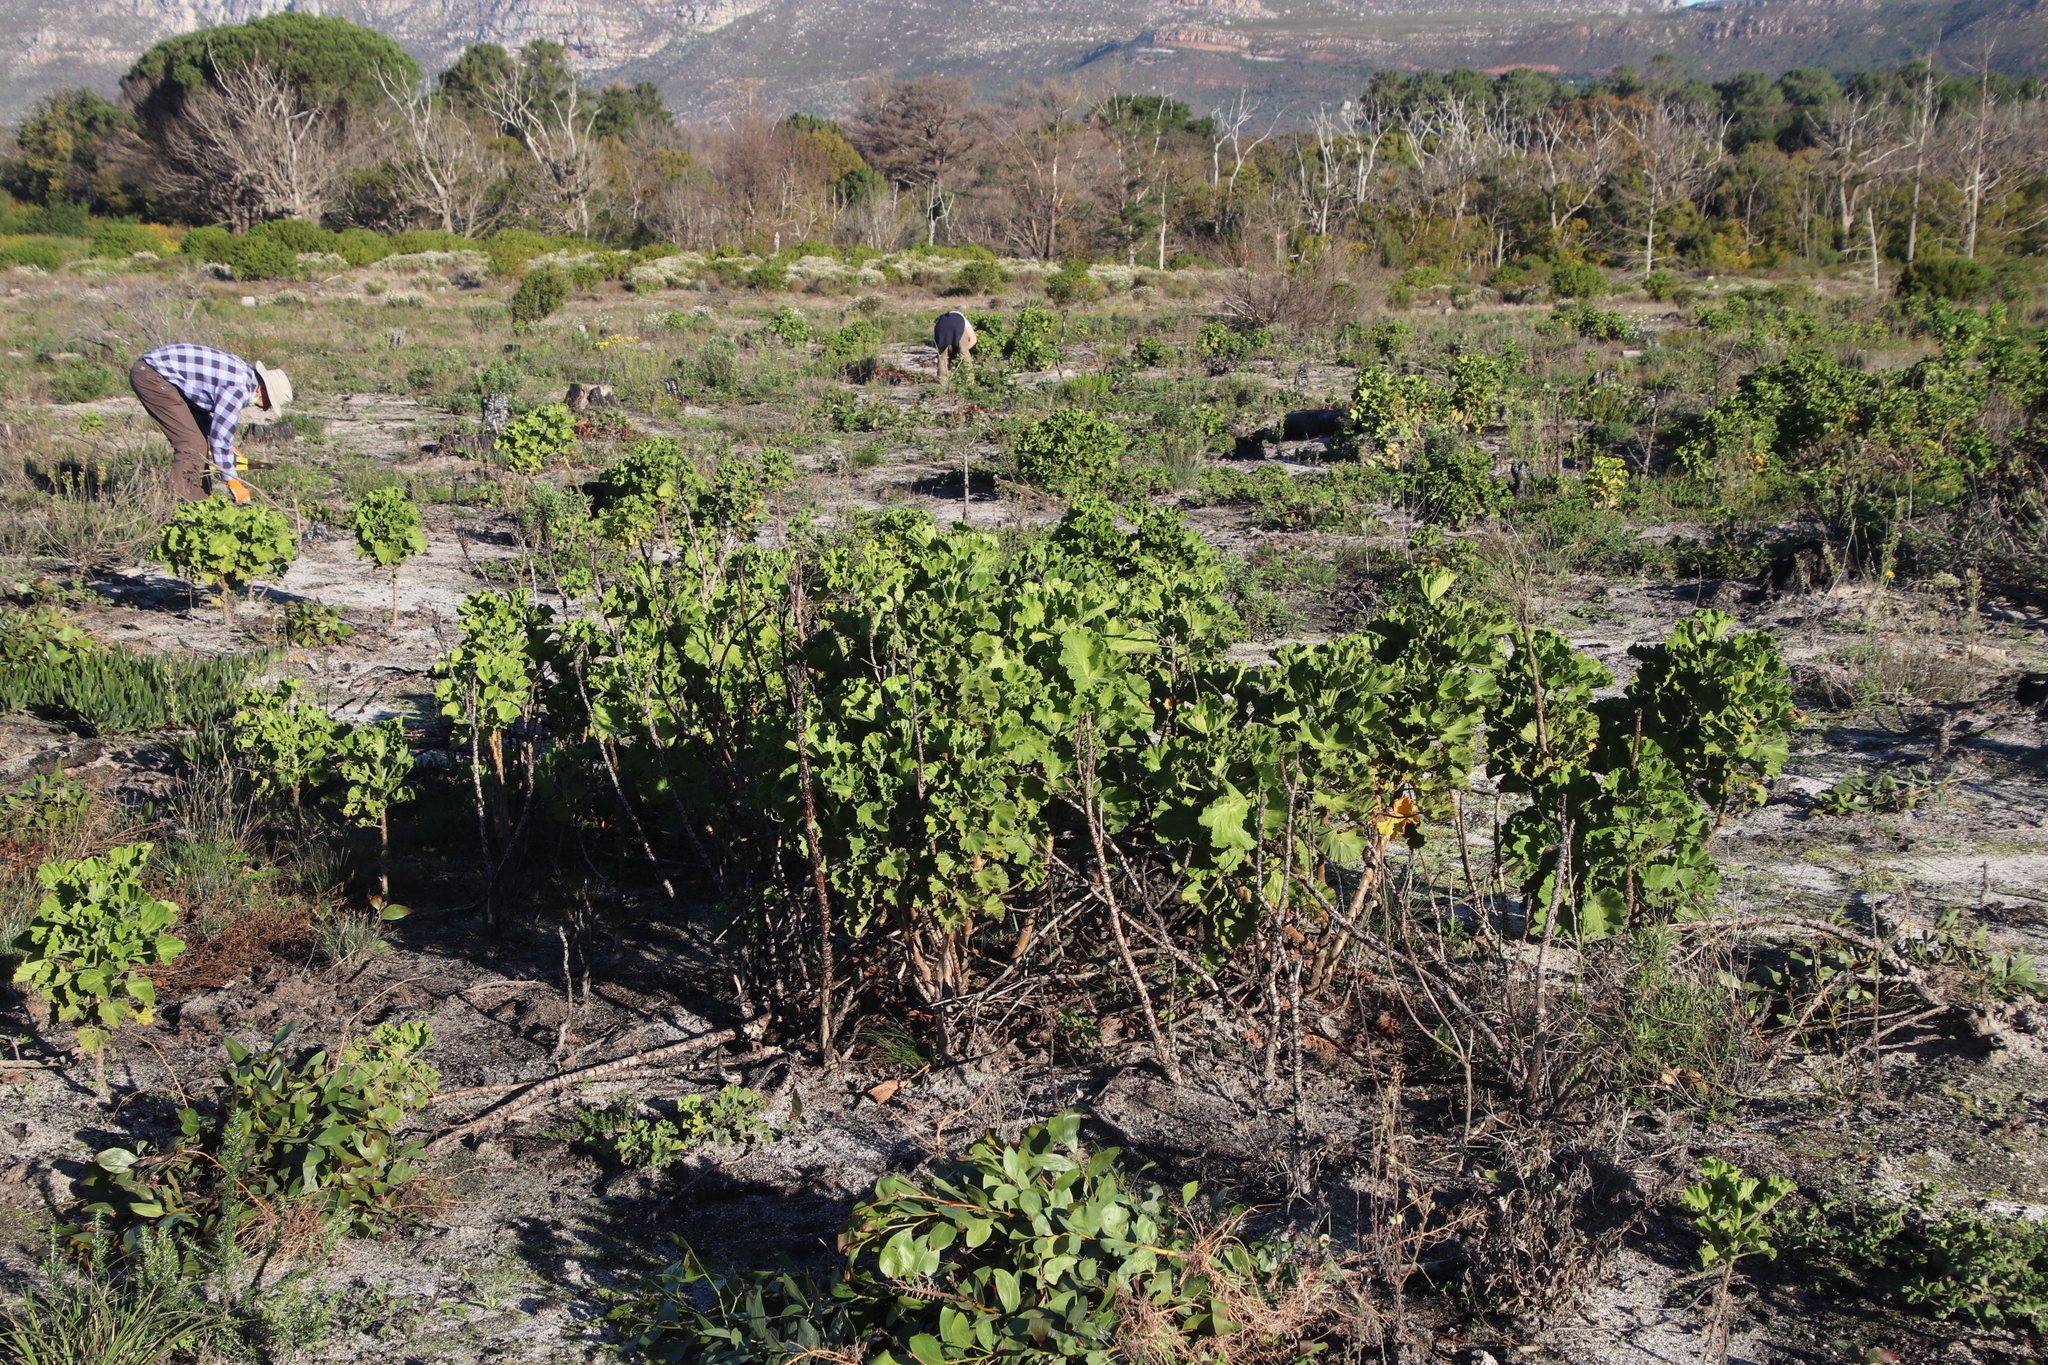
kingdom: Plantae
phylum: Tracheophyta
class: Magnoliopsida
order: Geraniales
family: Geraniaceae
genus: Pelargonium
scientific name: Pelargonium cucullatum
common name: Tree pelargonium
